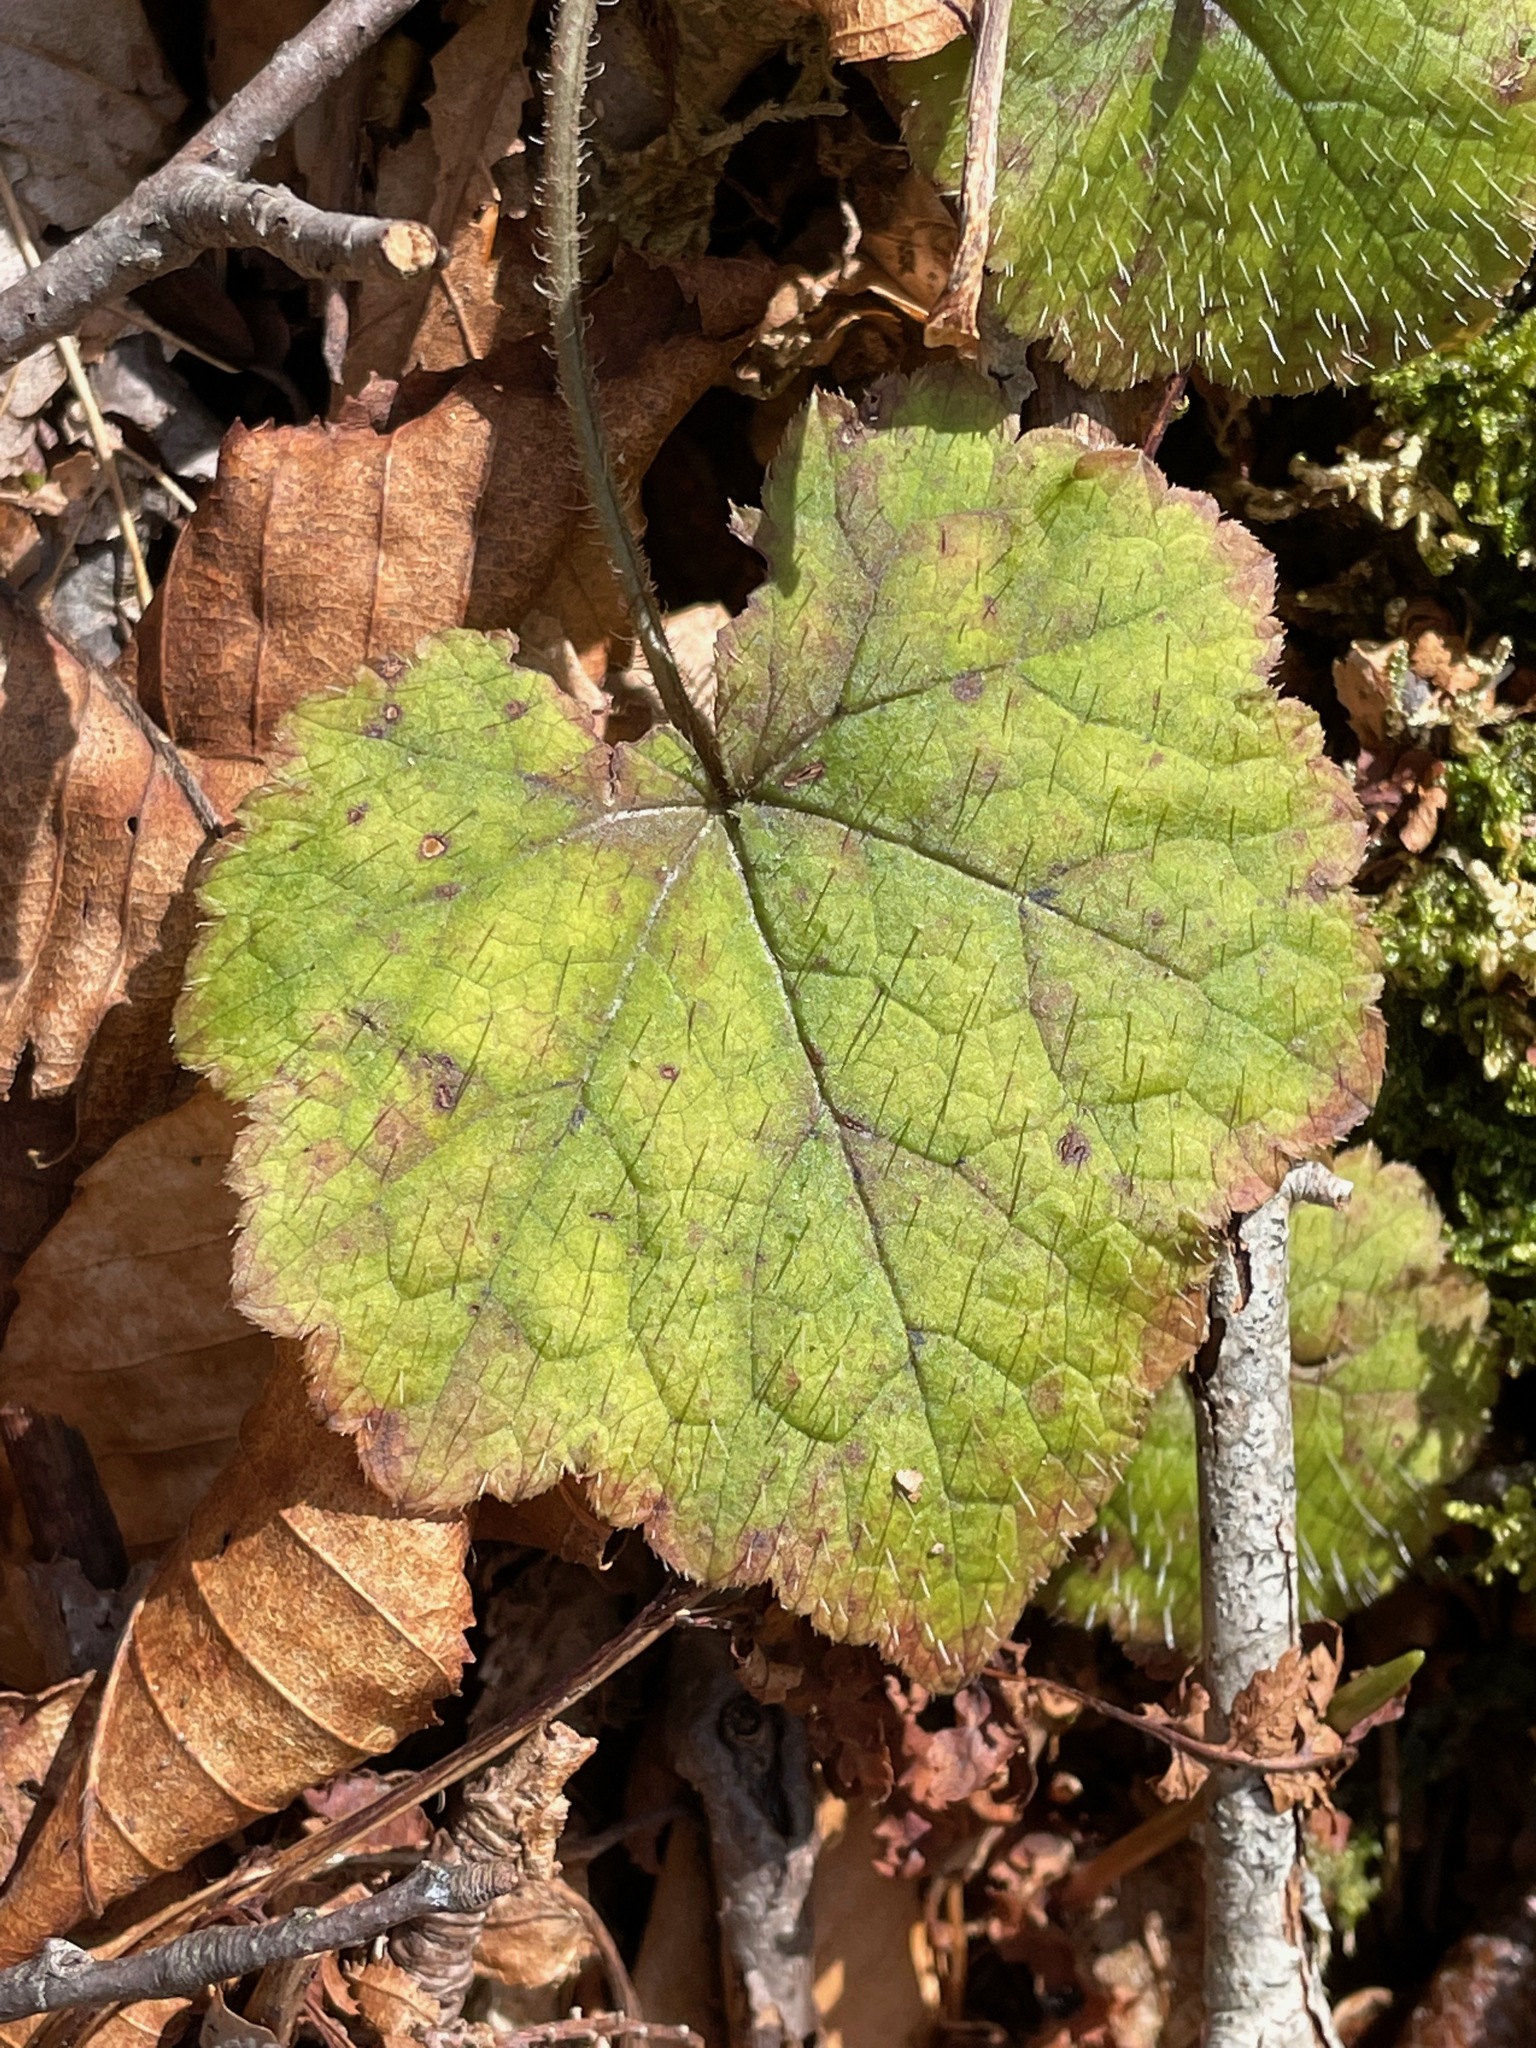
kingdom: Plantae
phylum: Tracheophyta
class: Magnoliopsida
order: Saxifragales
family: Saxifragaceae
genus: Tiarella
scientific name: Tiarella stolonifera
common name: Stoloniferous foamflower
